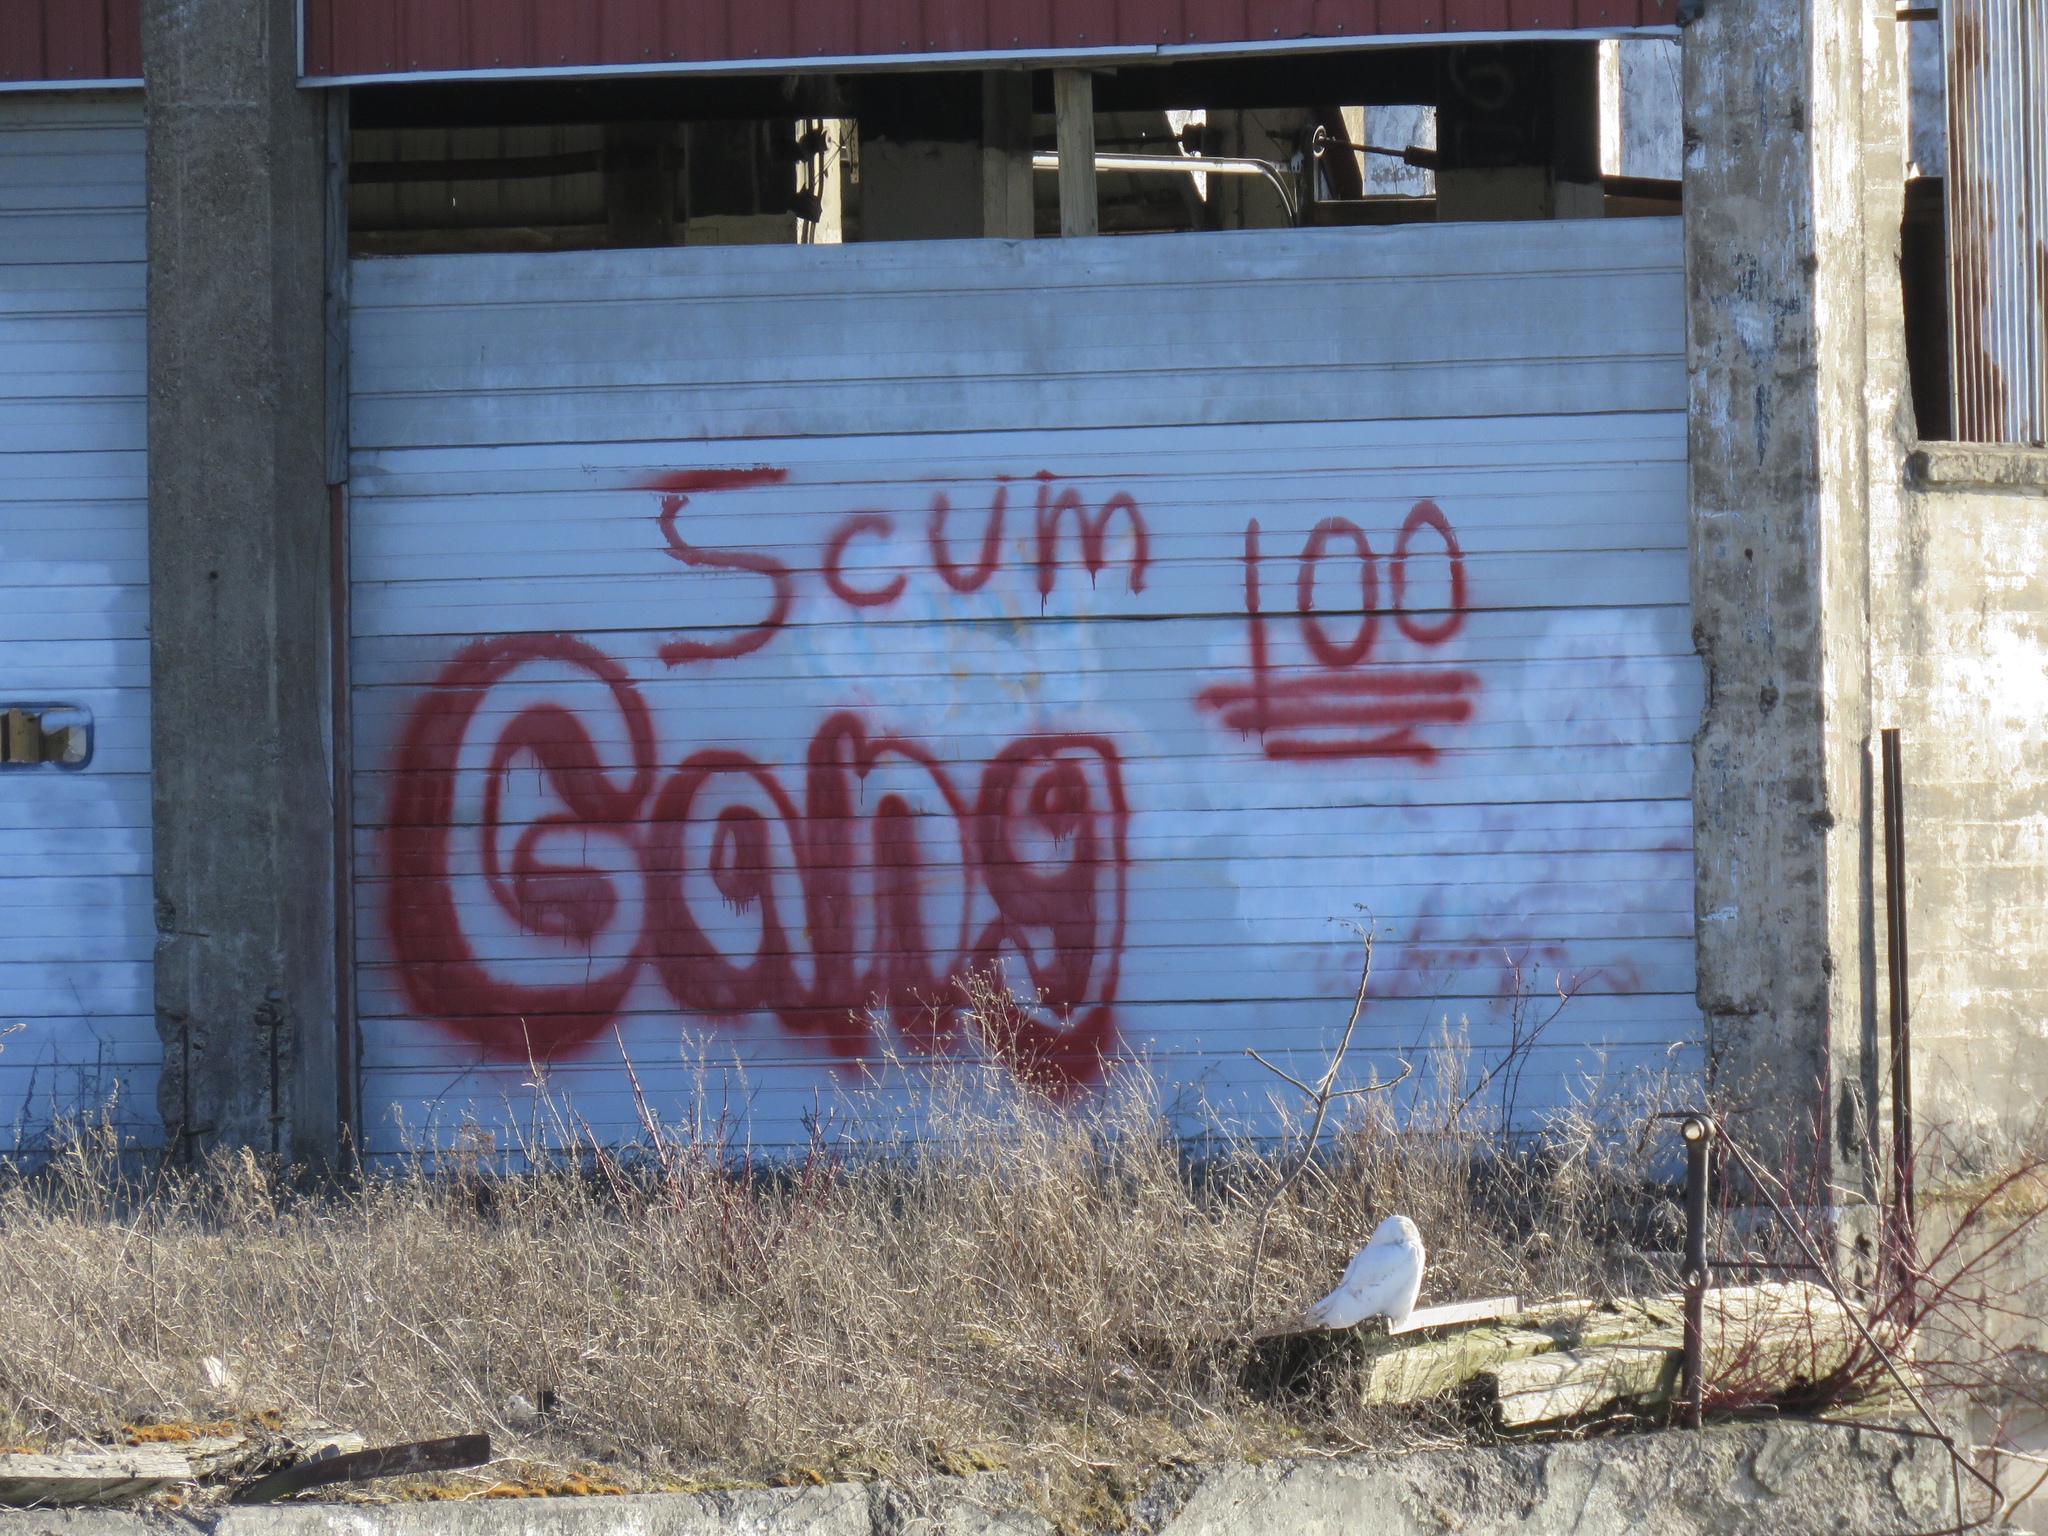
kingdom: Animalia
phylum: Chordata
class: Aves
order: Strigiformes
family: Strigidae
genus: Bubo
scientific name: Bubo scandiacus
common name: Snowy owl
